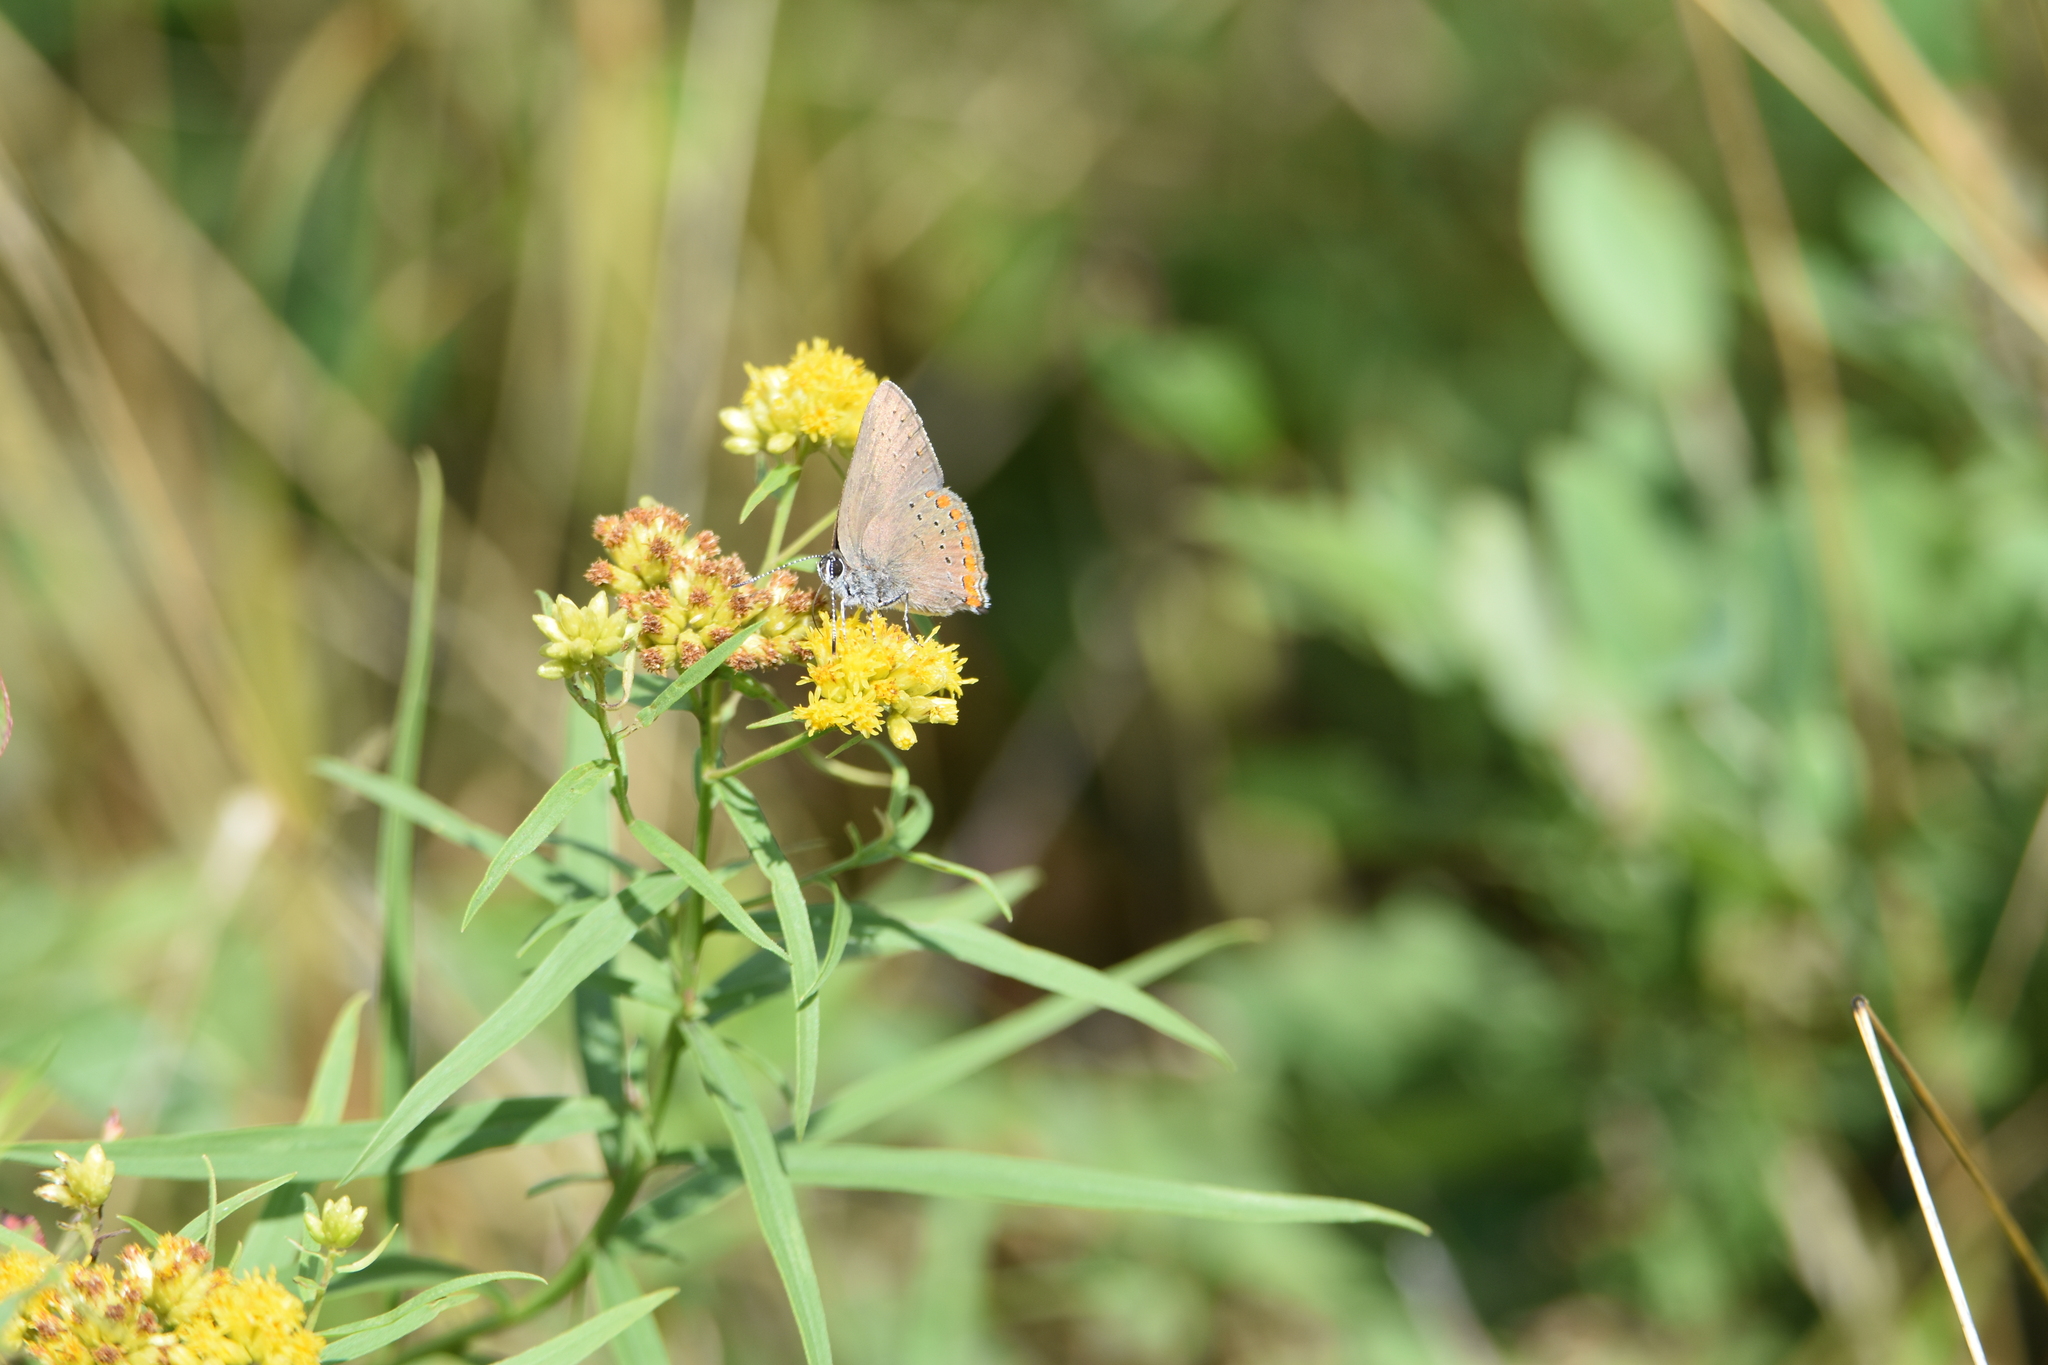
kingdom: Animalia
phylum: Arthropoda
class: Insecta
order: Lepidoptera
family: Lycaenidae
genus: Harkenclenus
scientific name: Harkenclenus titus
